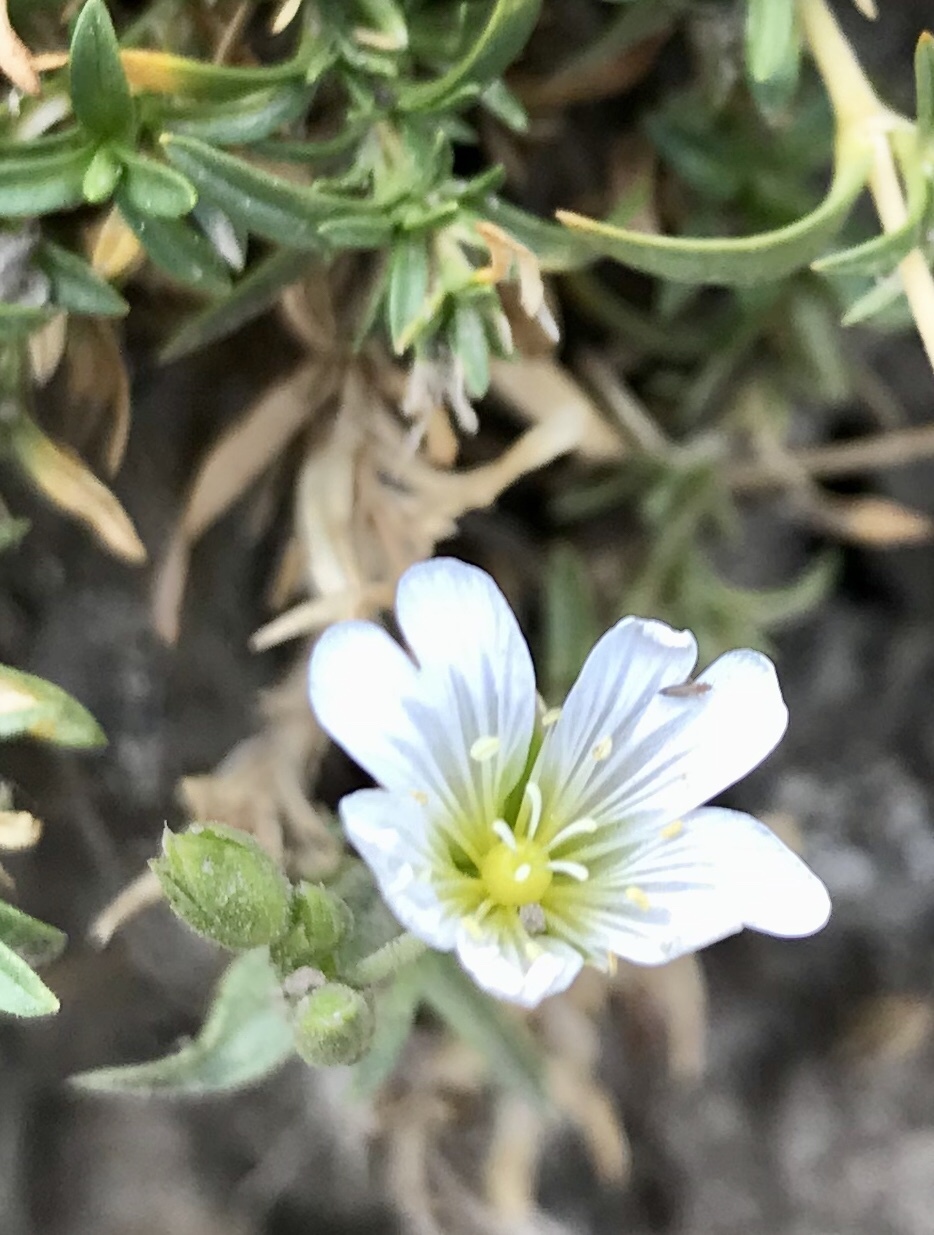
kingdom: Plantae
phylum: Tracheophyta
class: Magnoliopsida
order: Caryophyllales
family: Caryophyllaceae
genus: Cerastium
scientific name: Cerastium arvense
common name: Field mouse-ear
